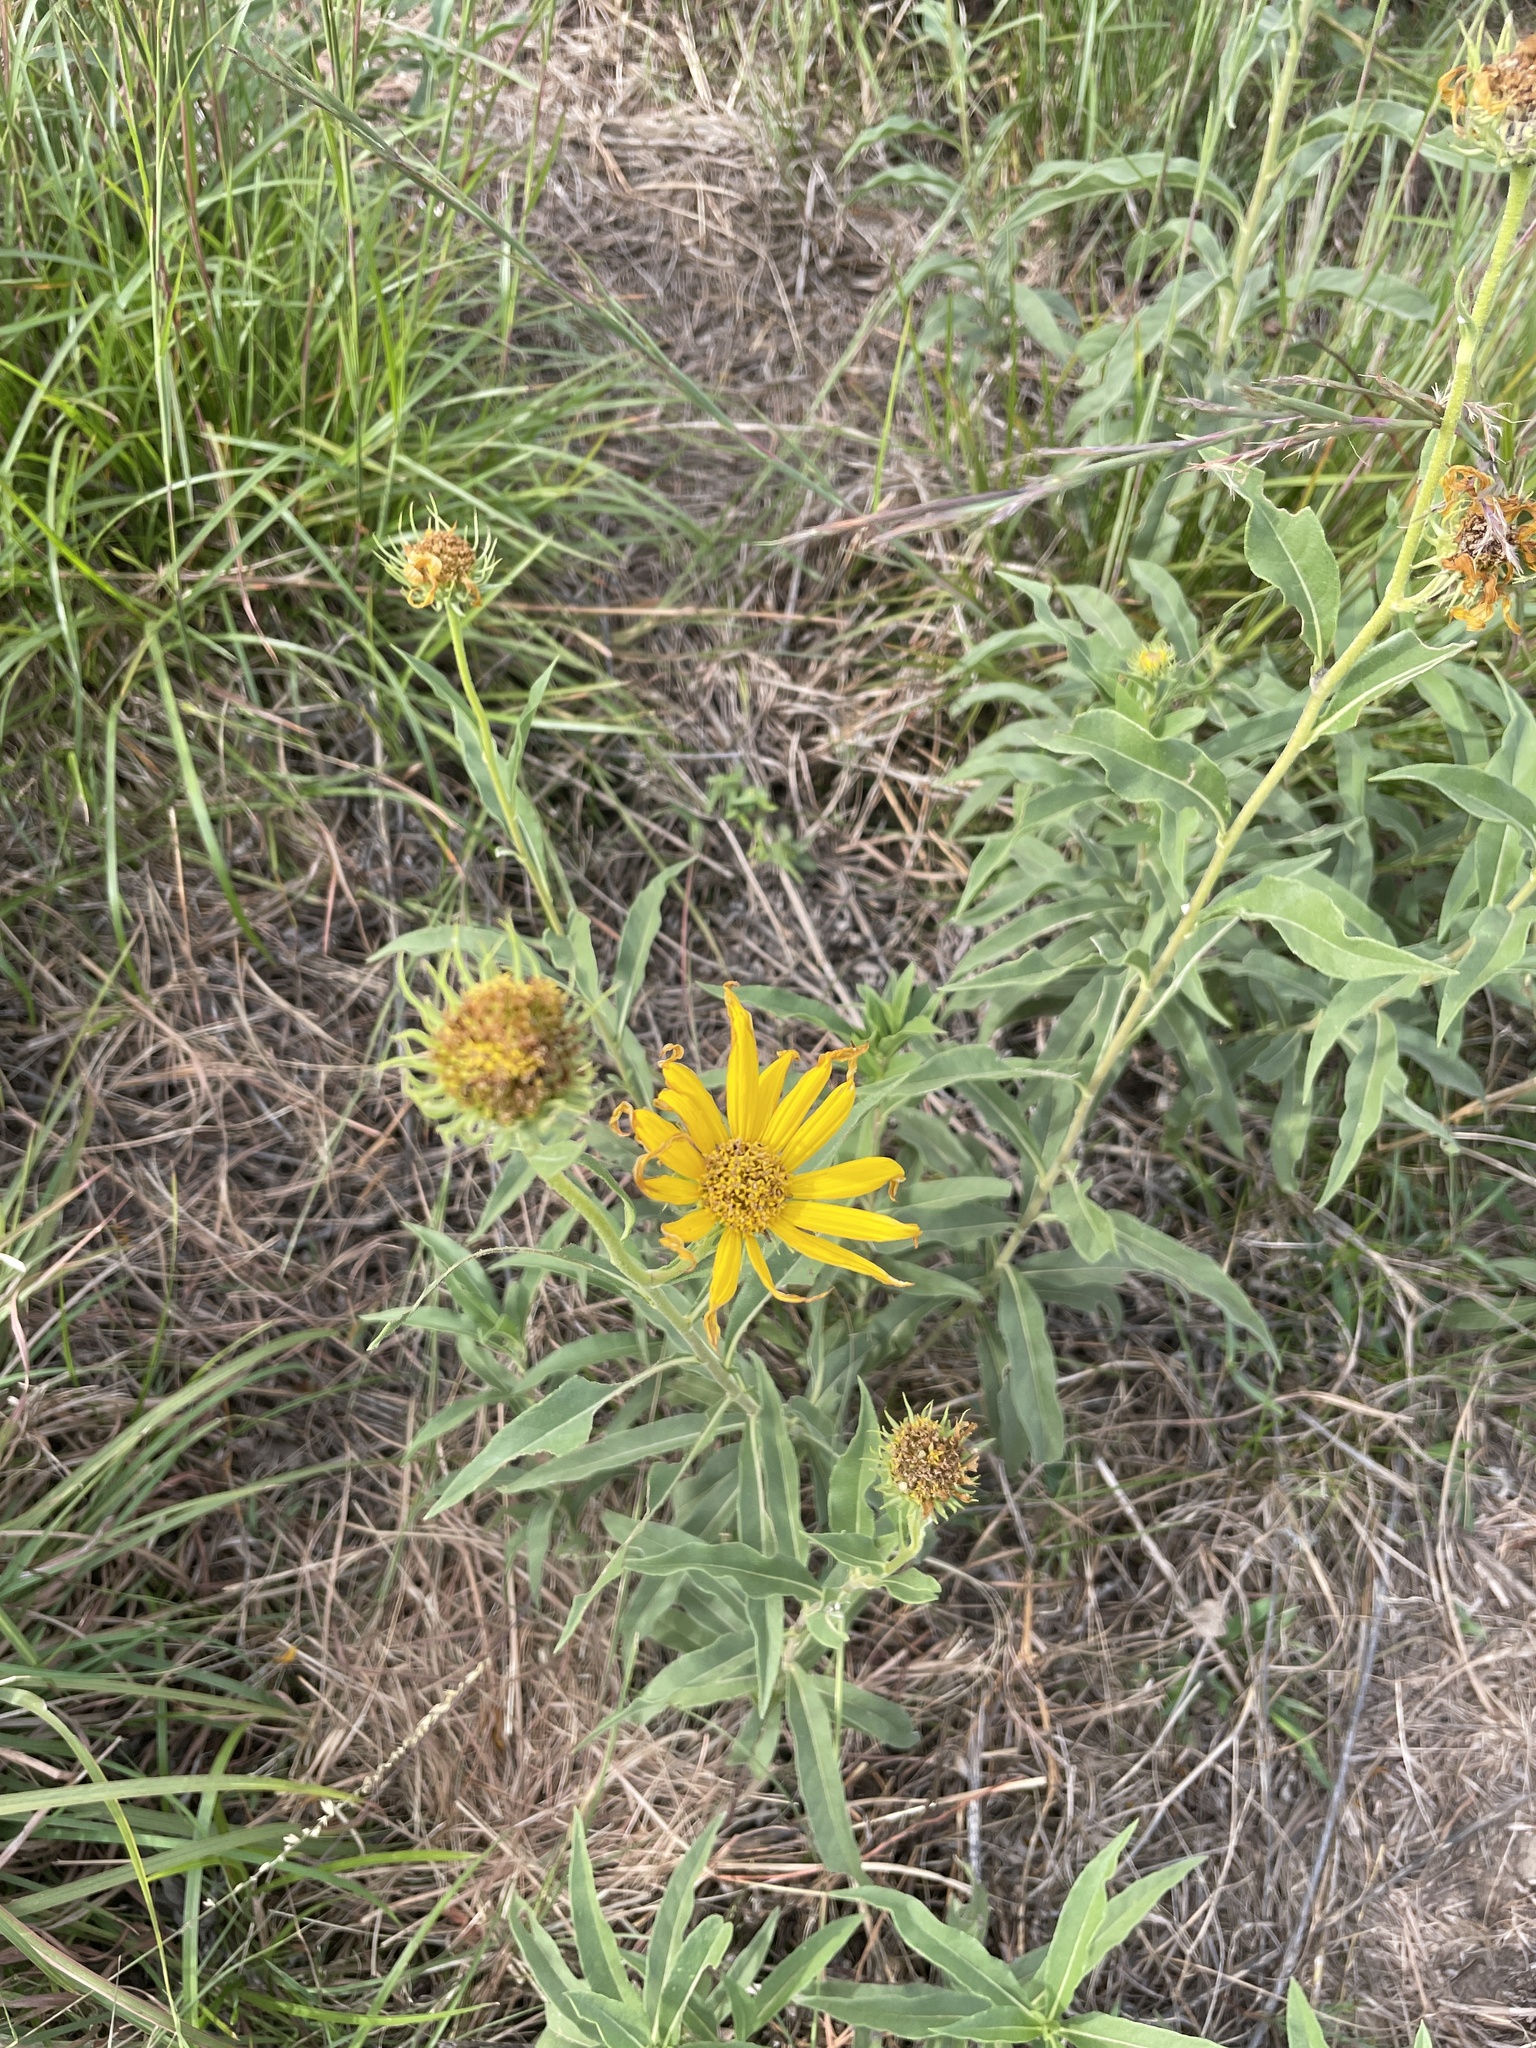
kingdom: Plantae
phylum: Tracheophyta
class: Magnoliopsida
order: Asterales
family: Asteraceae
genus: Helianthus
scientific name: Helianthus maximiliani
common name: Maximilian's sunflower
